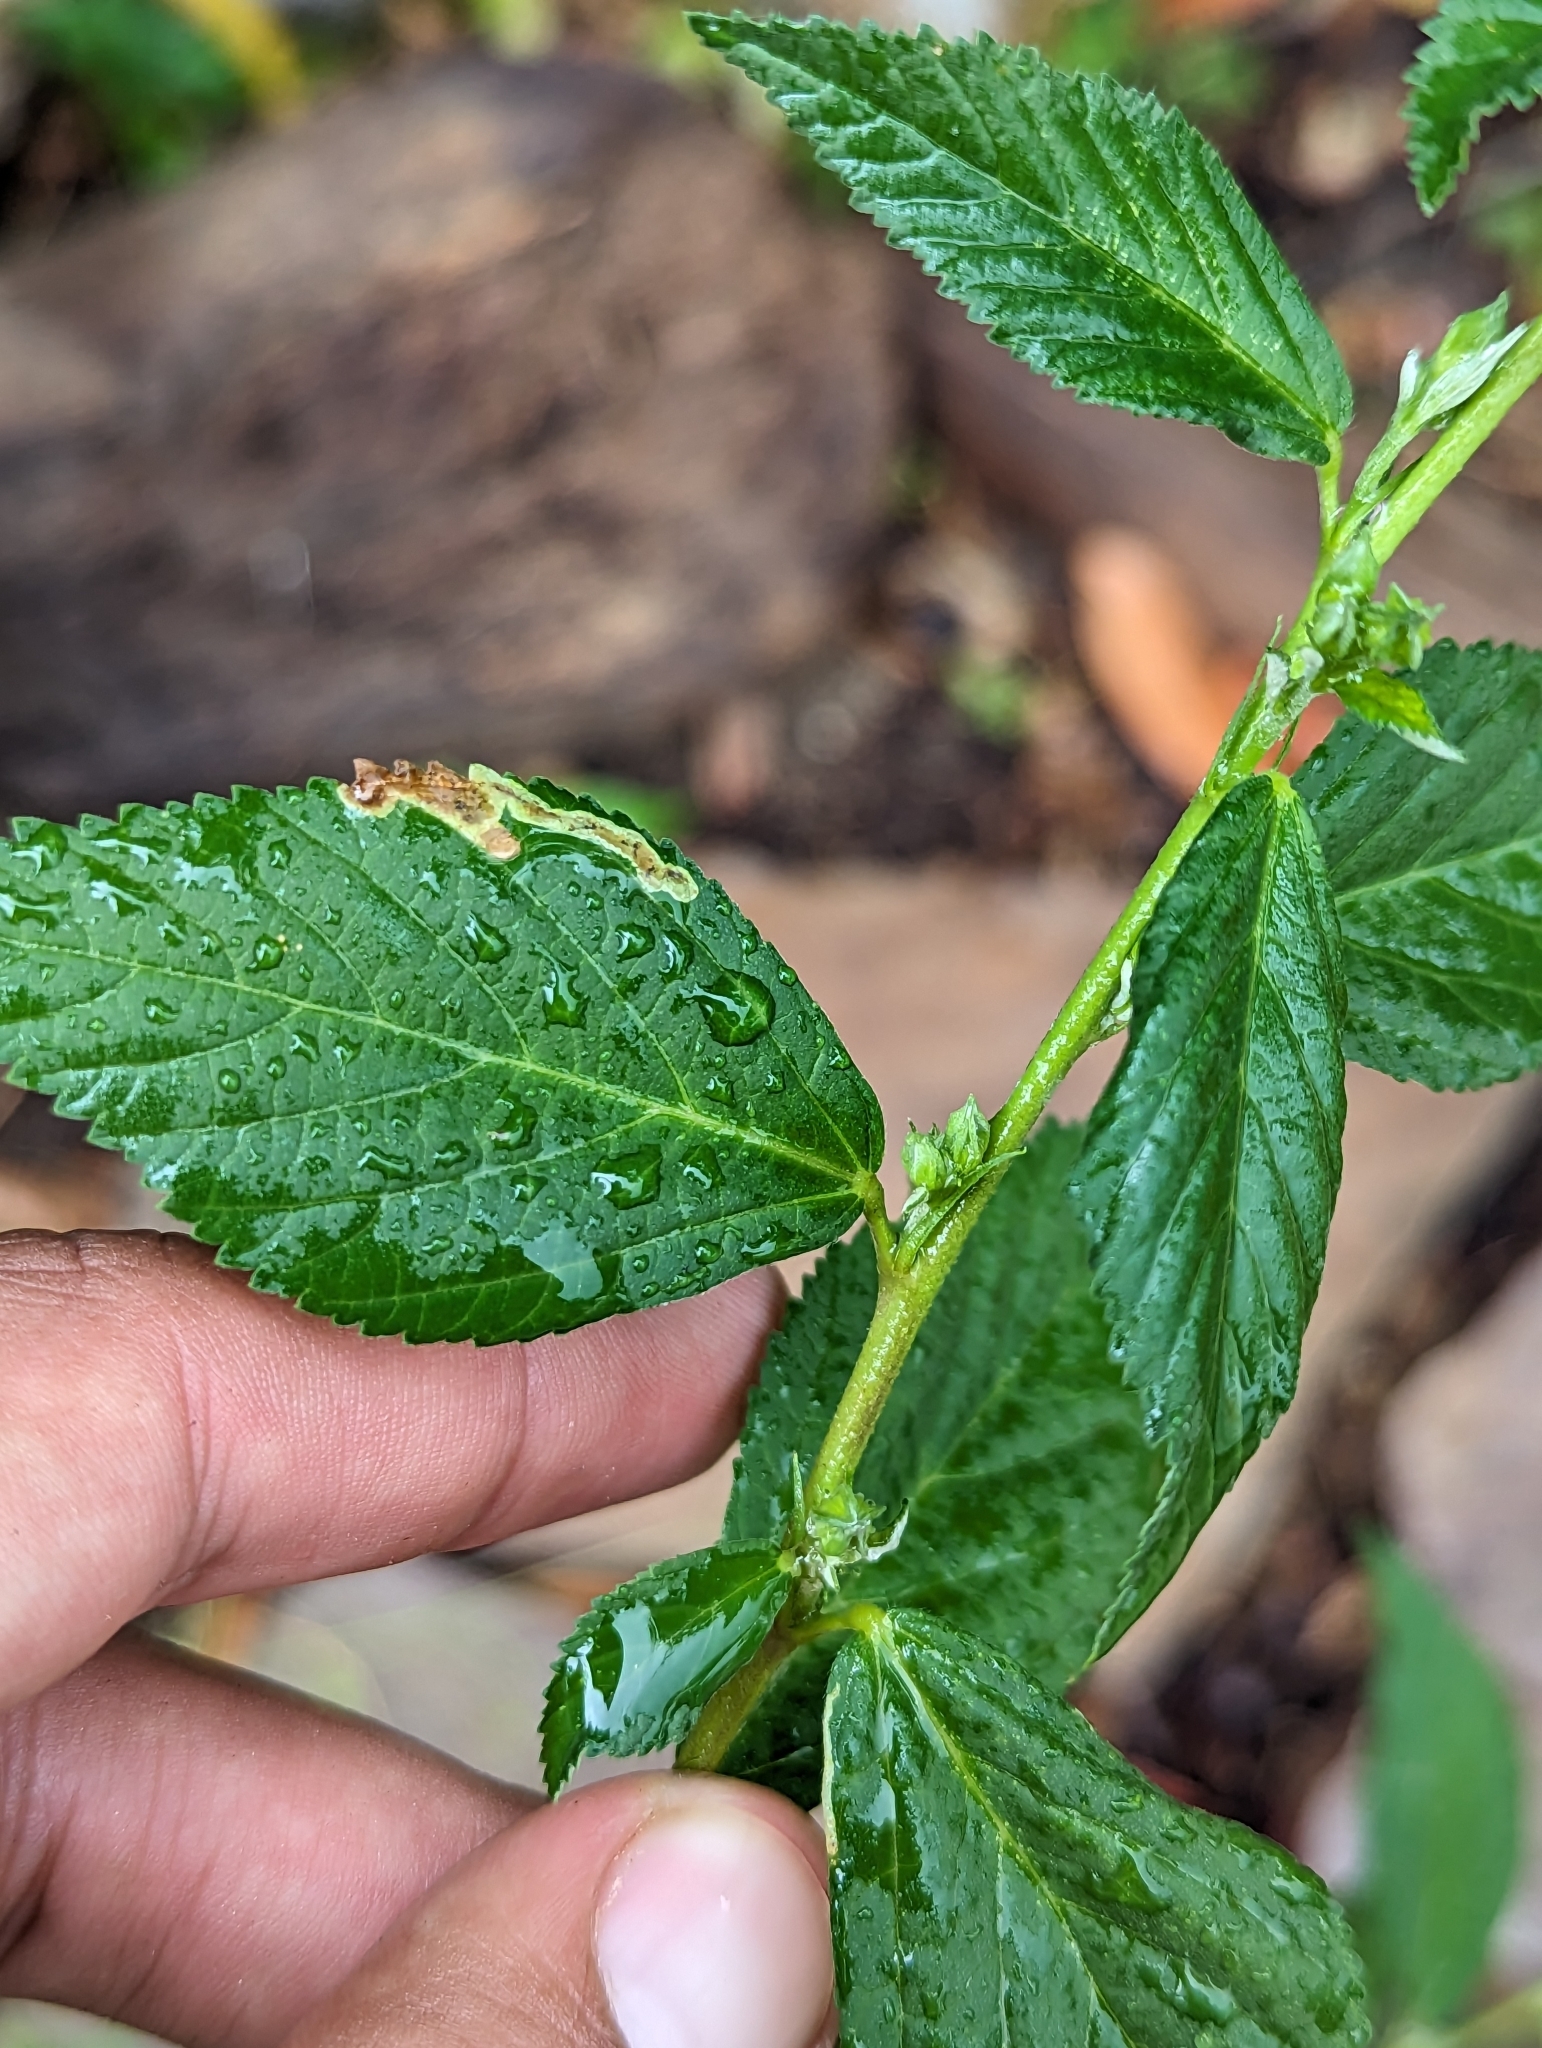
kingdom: Plantae
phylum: Tracheophyta
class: Magnoliopsida
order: Malvales
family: Malvaceae
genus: Sida
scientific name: Sida rhombifolia
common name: Queensland-hemp
